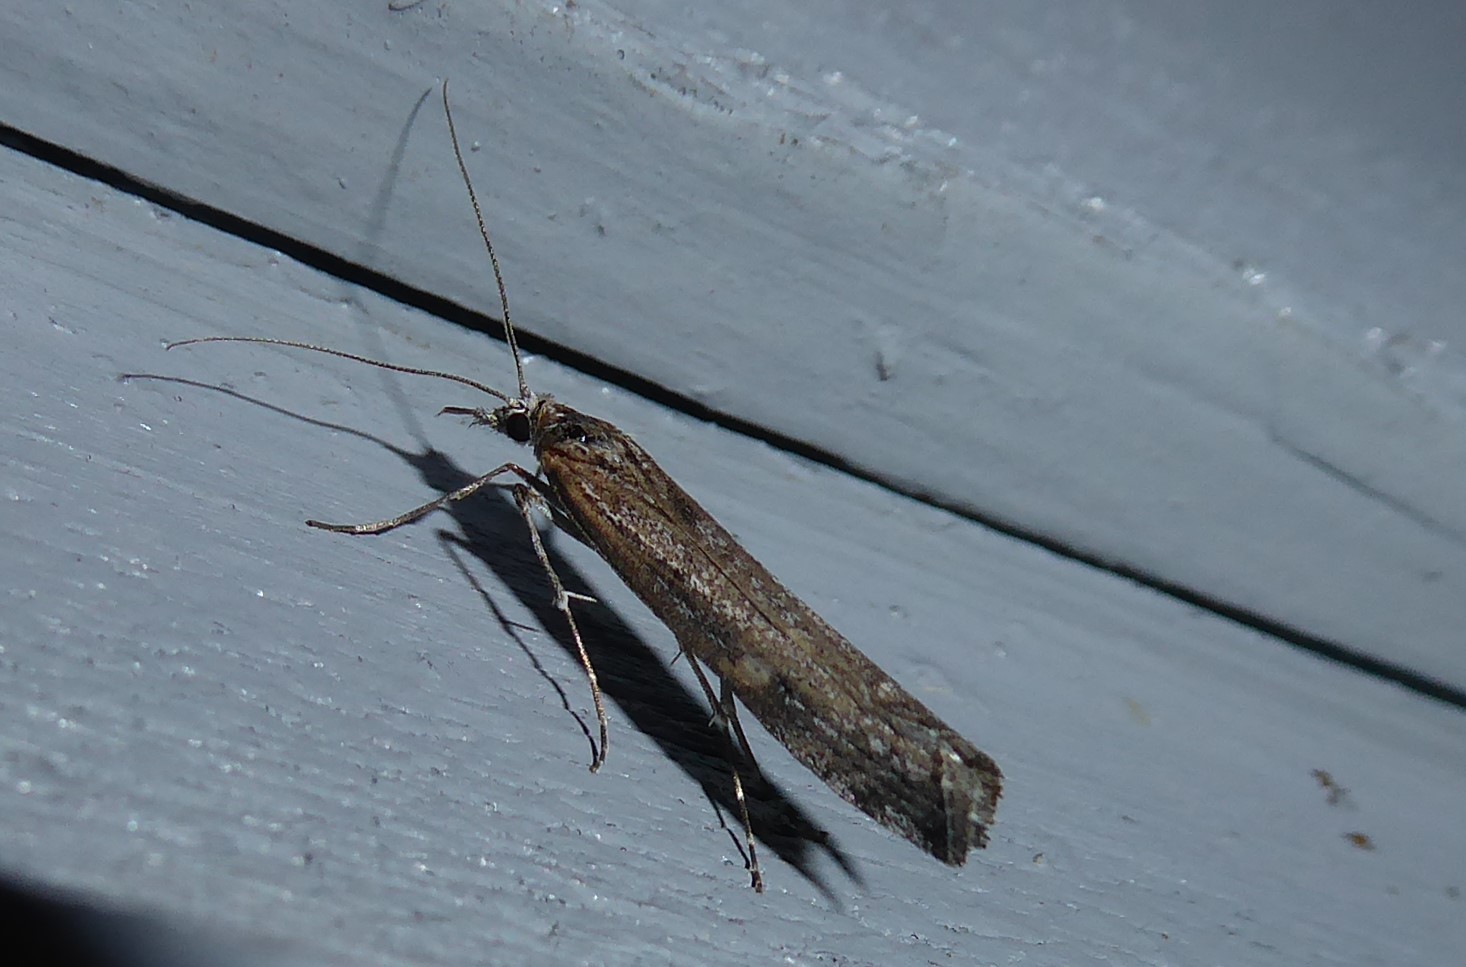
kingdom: Animalia
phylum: Arthropoda
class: Insecta
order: Lepidoptera
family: Crambidae
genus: Orocrambus
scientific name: Orocrambus cyclopicus
